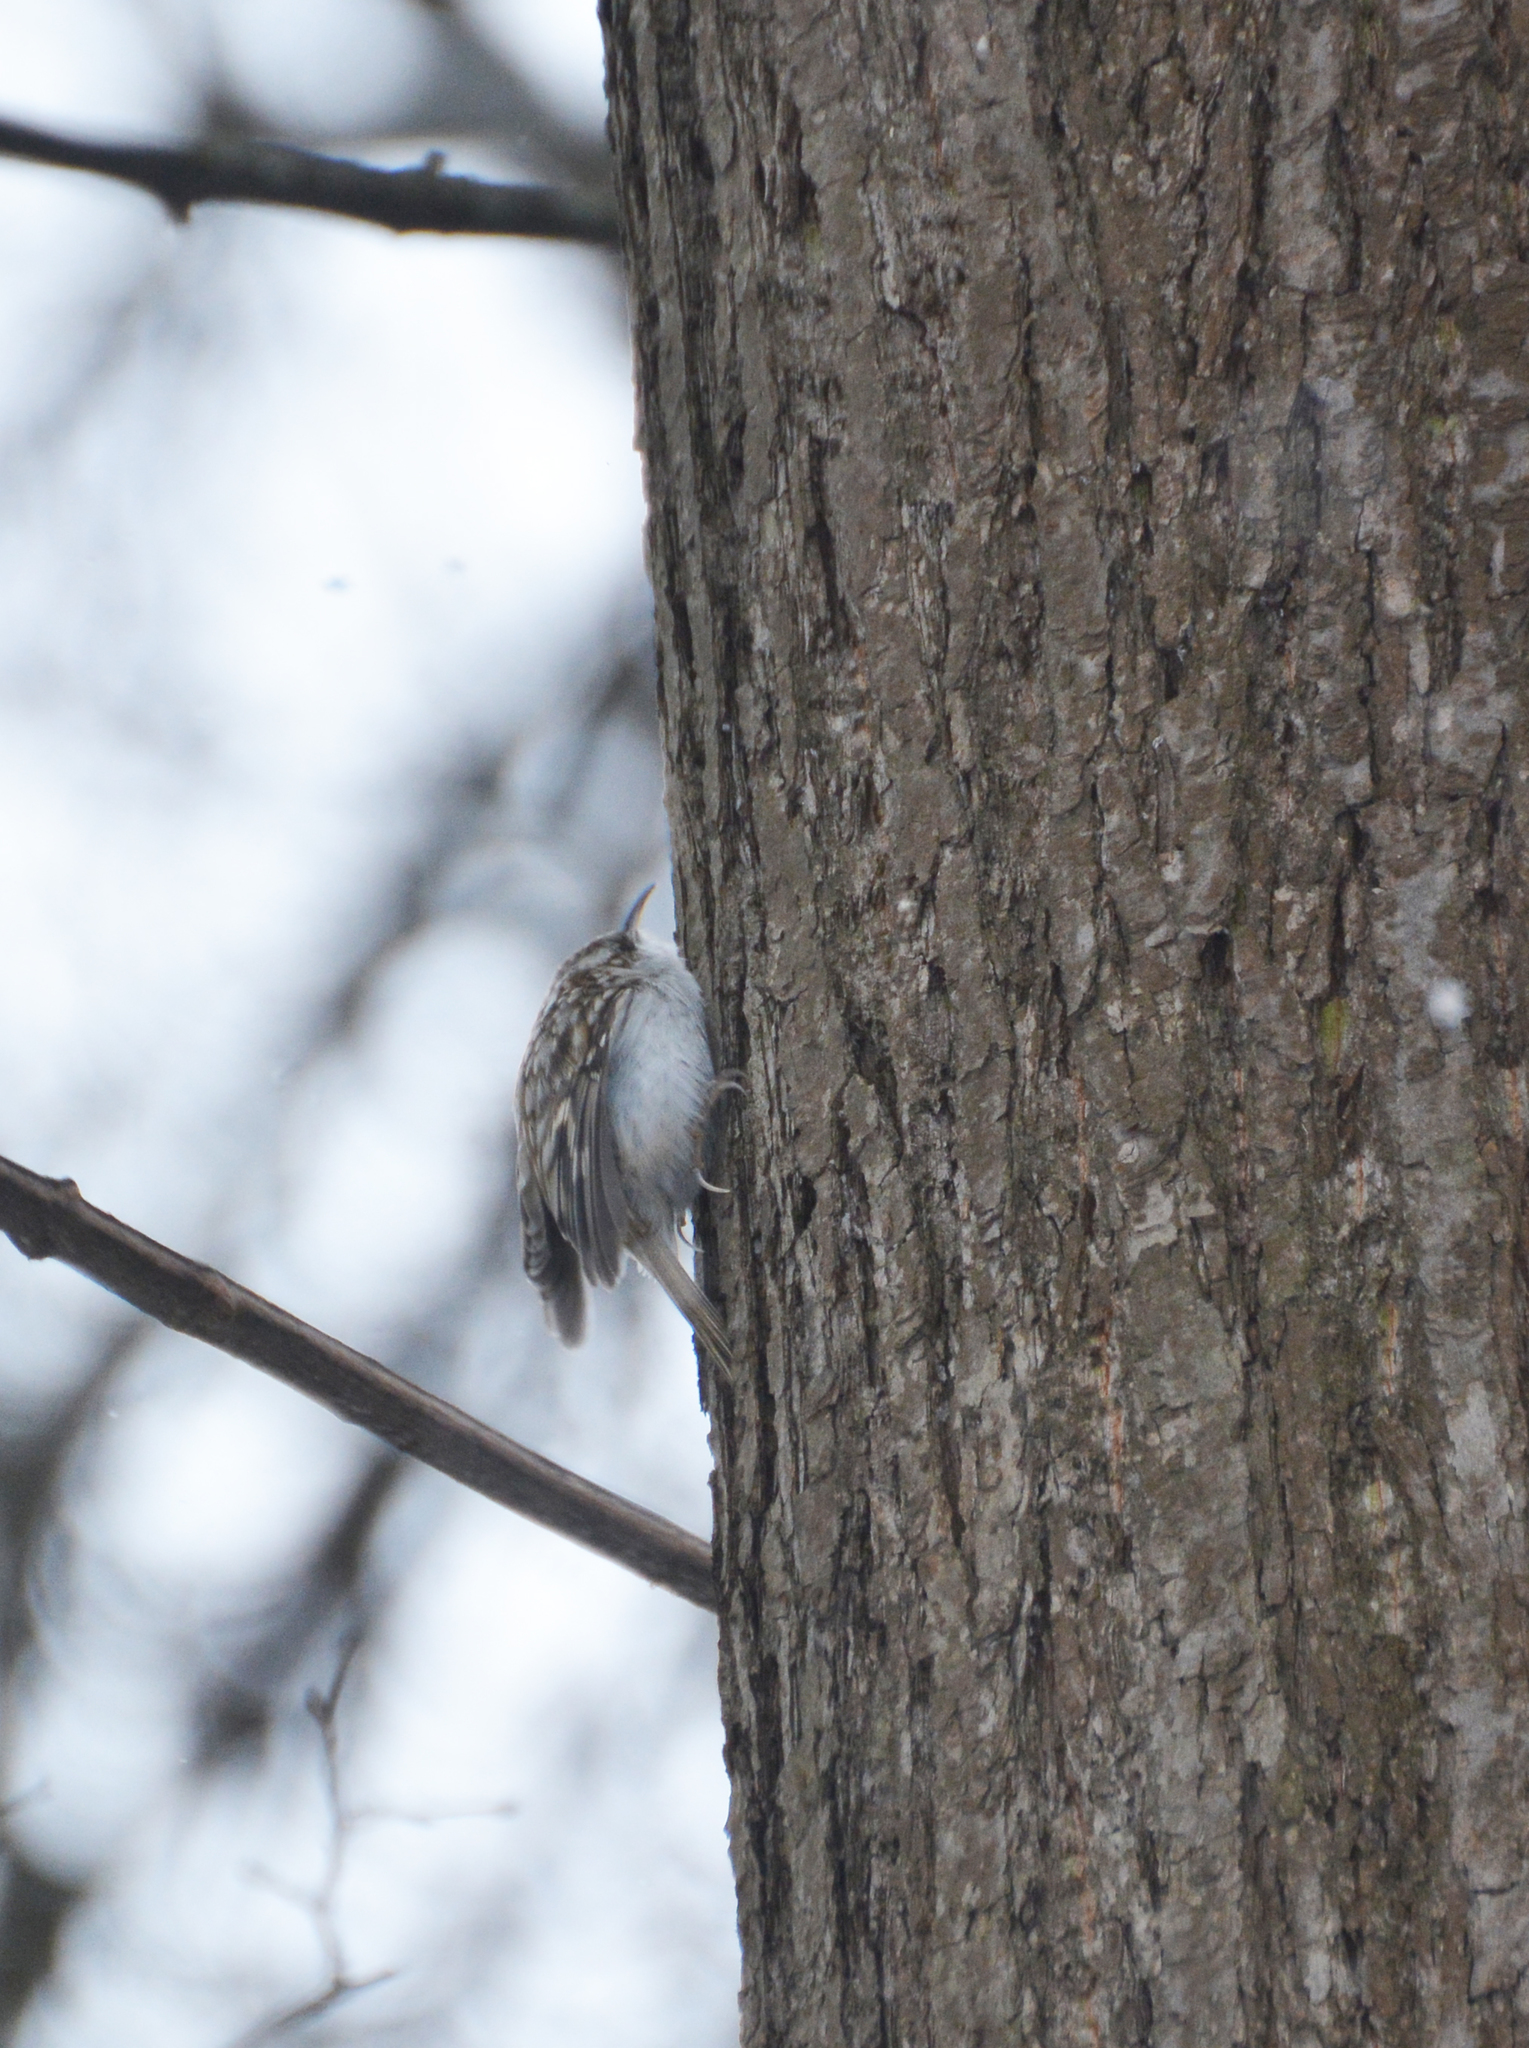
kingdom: Animalia
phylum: Chordata
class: Aves
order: Passeriformes
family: Certhiidae
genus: Certhia
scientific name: Certhia familiaris
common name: Eurasian treecreeper
